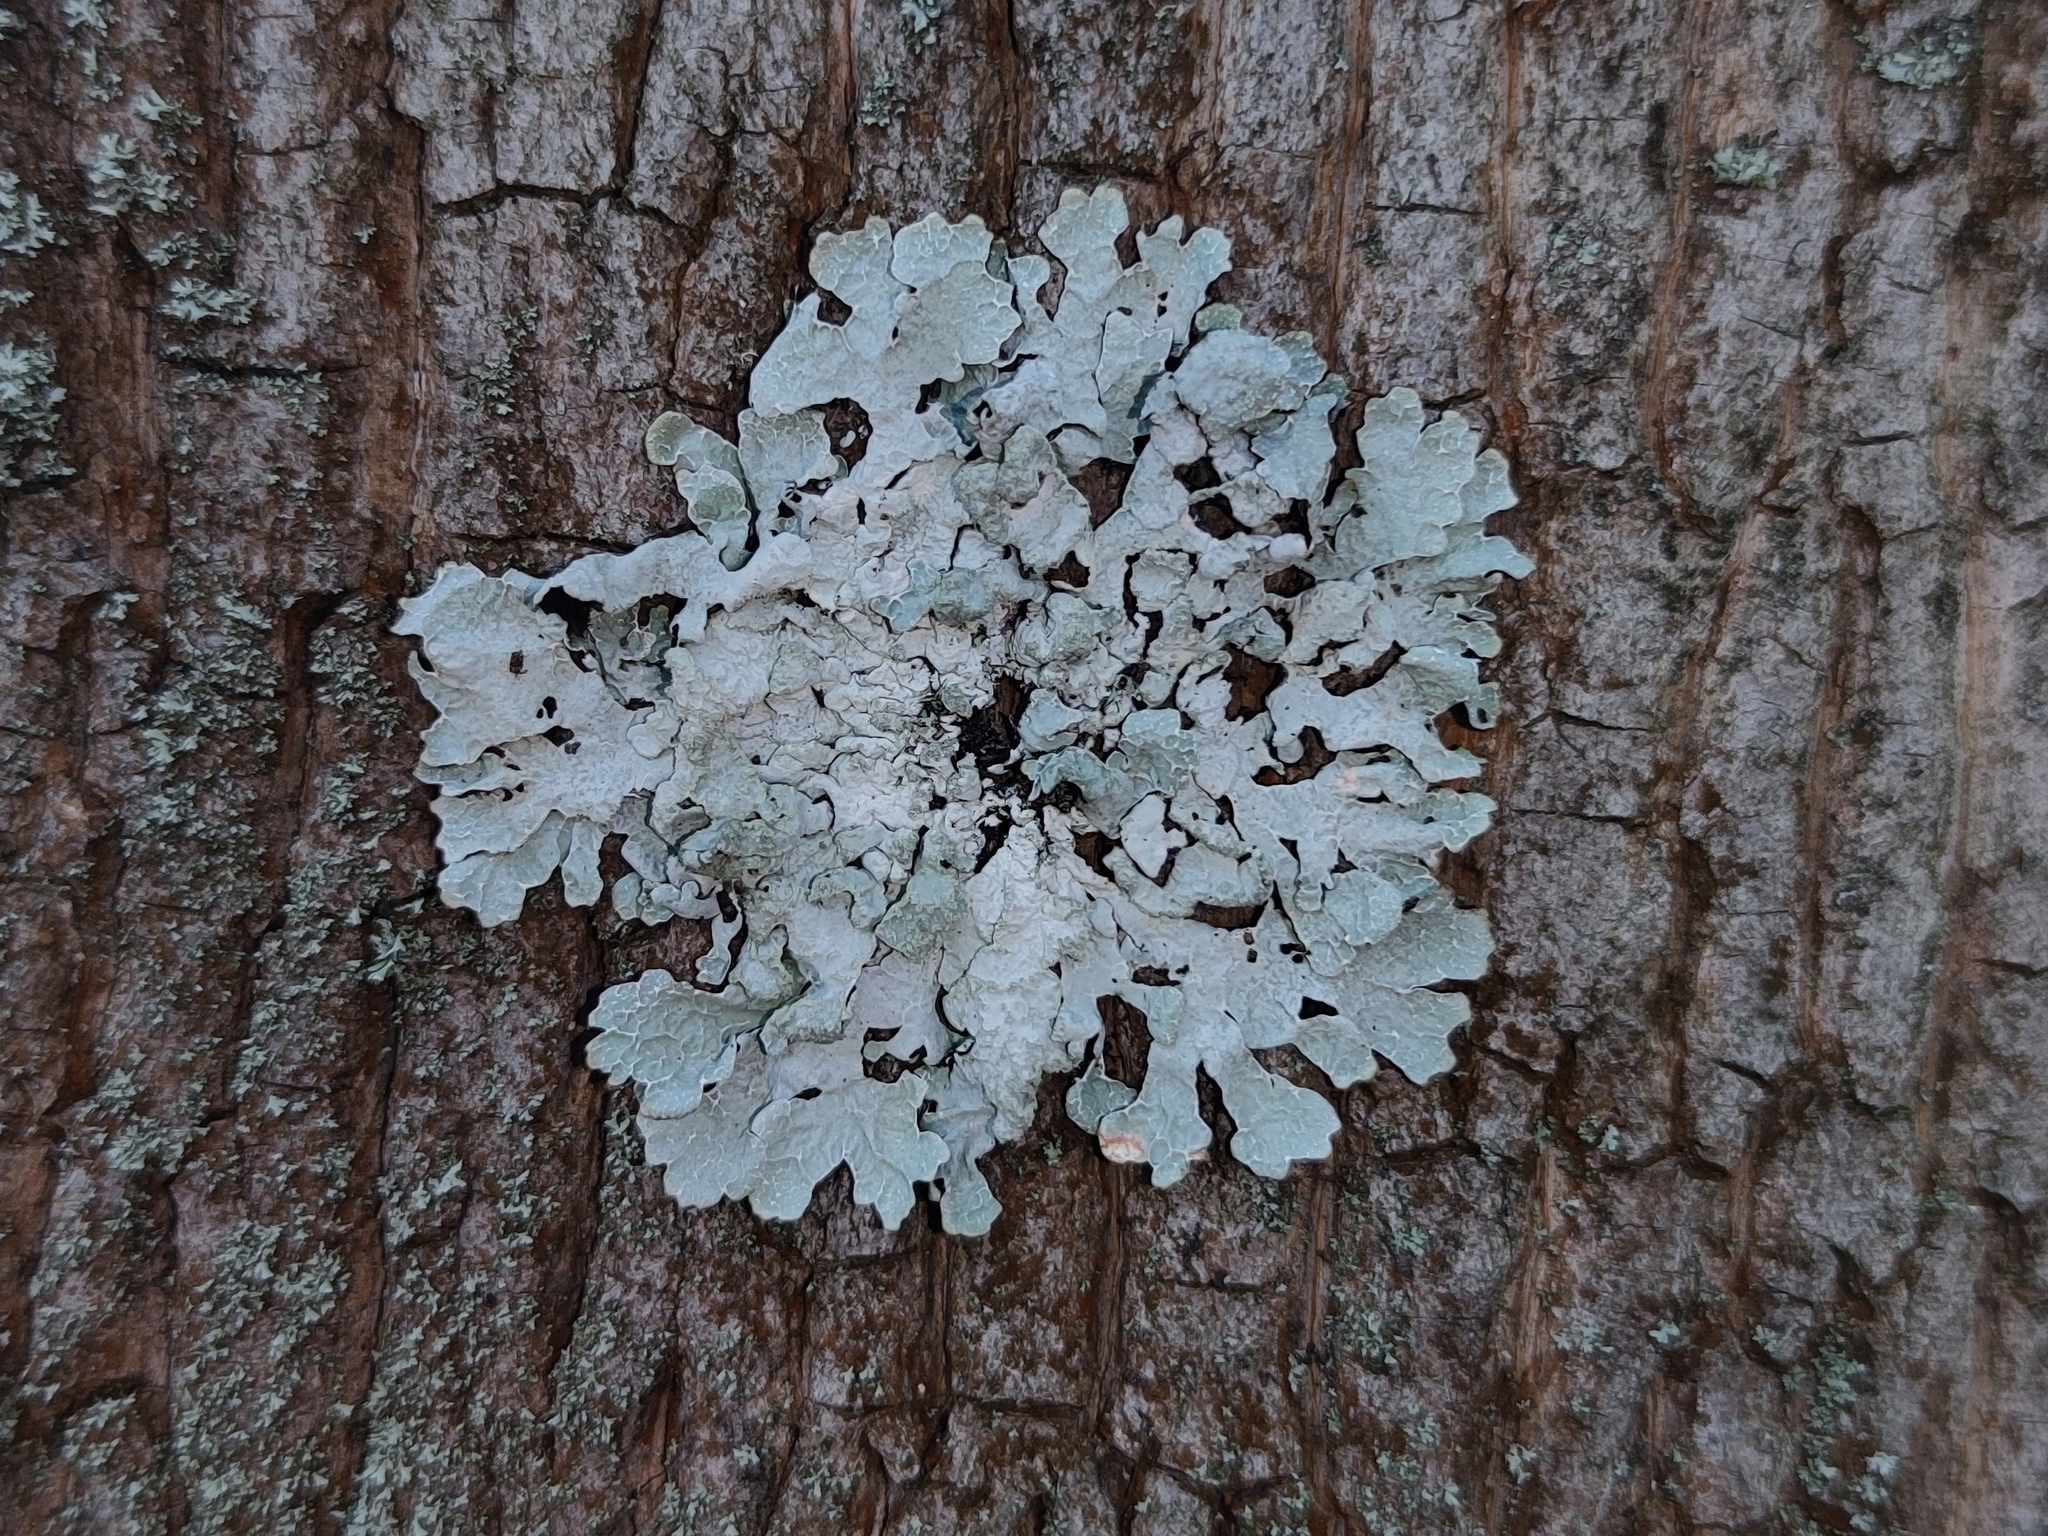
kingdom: Fungi
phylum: Ascomycota
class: Lecanoromycetes
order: Lecanorales
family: Parmeliaceae
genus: Parmelia
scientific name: Parmelia sulcata
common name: Netted shield lichen
